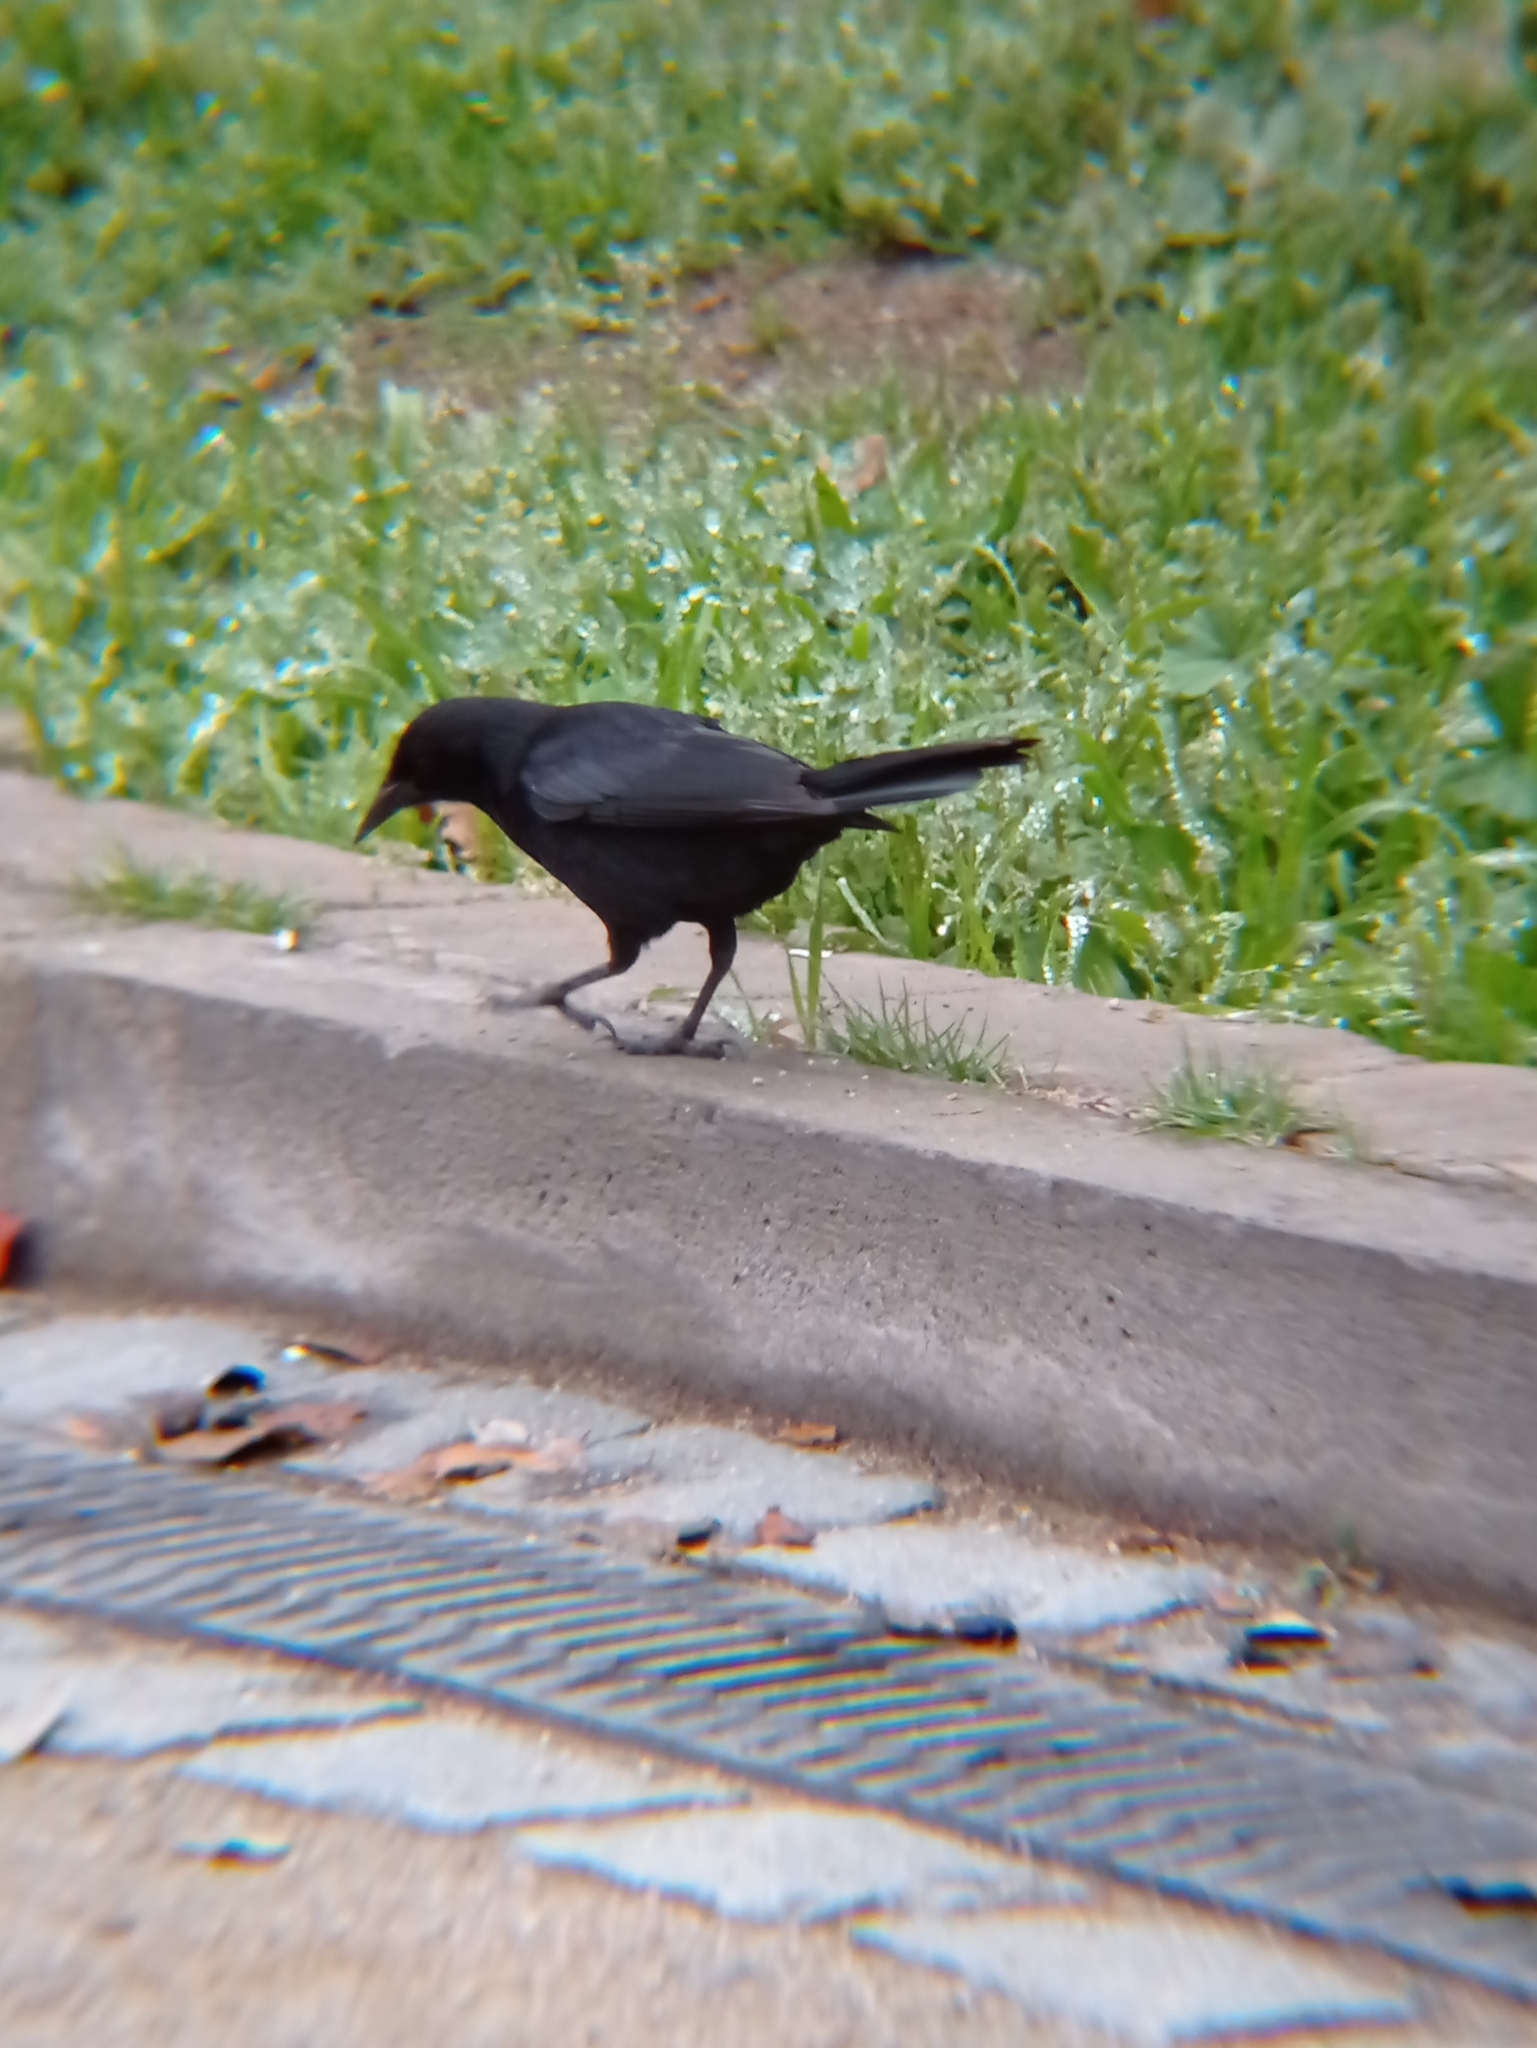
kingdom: Animalia
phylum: Chordata
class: Aves
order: Passeriformes
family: Icteridae
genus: Curaeus
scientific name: Curaeus curaeus
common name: Austral blackbird
